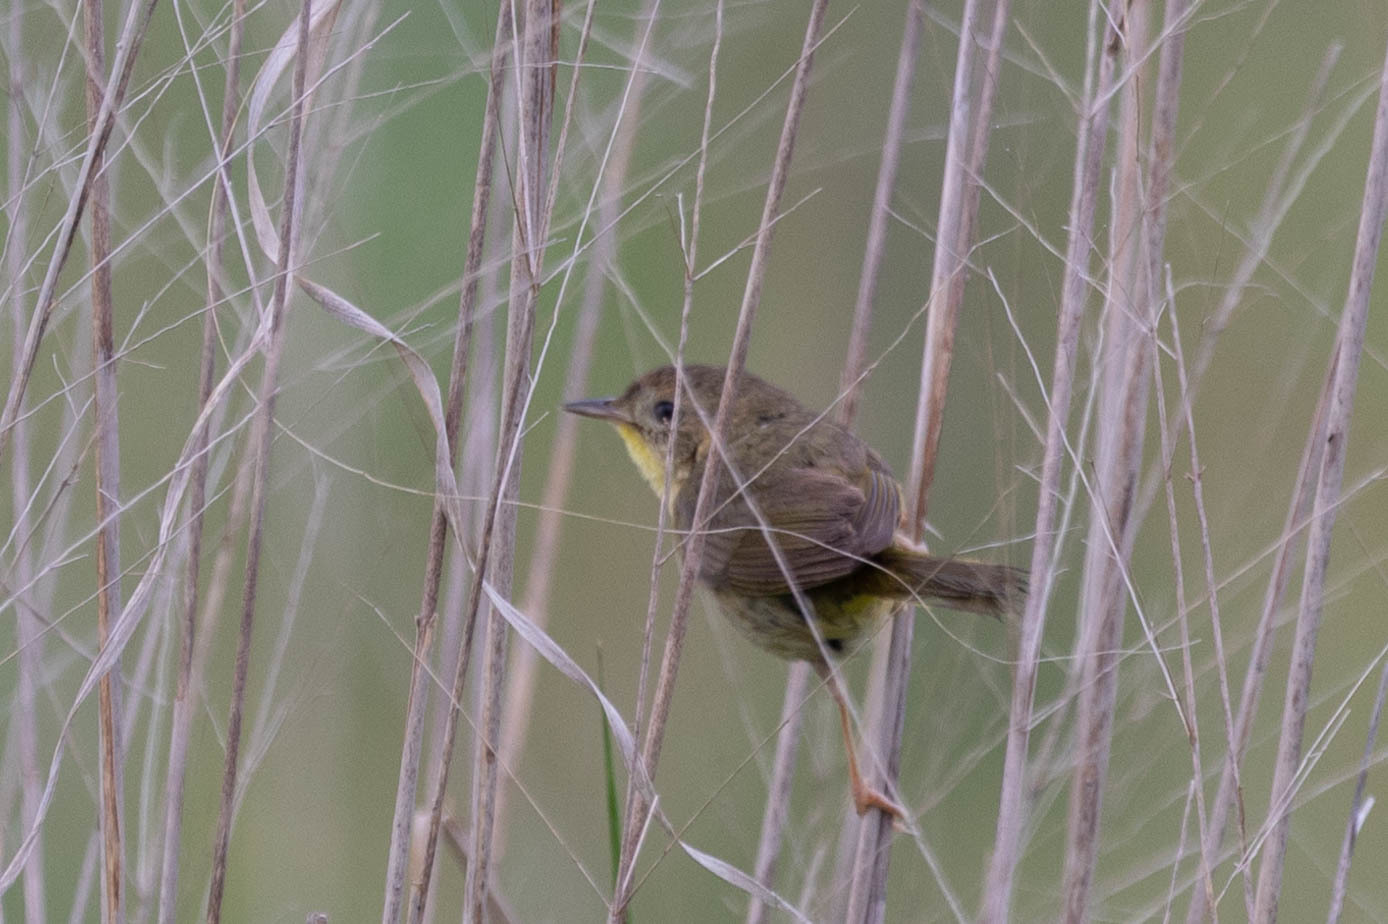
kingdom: Animalia
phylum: Chordata
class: Aves
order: Passeriformes
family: Parulidae
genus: Geothlypis
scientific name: Geothlypis trichas
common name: Common yellowthroat
